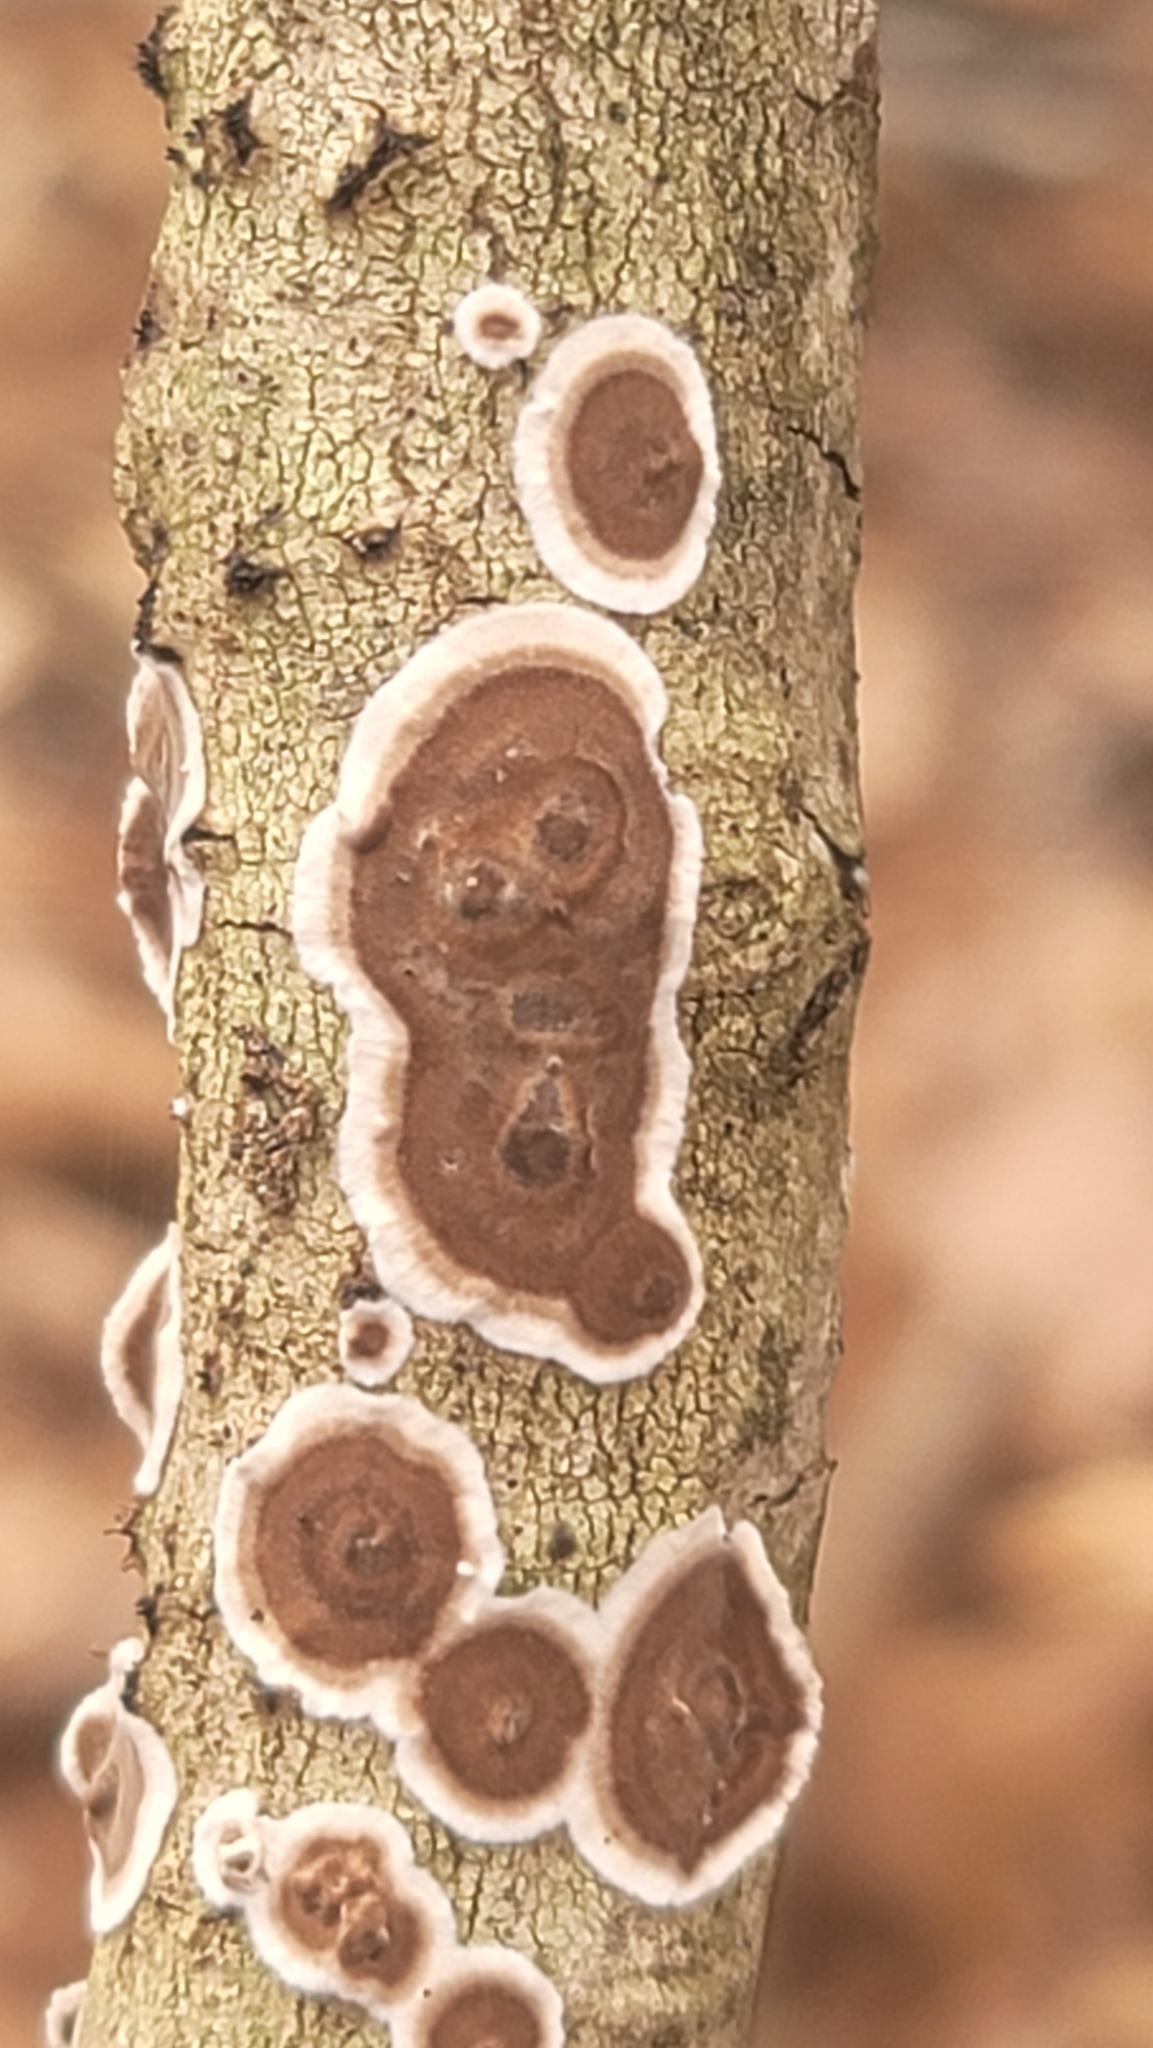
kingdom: Fungi
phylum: Basidiomycota
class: Agaricomycetes
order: Russulales
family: Peniophoraceae
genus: Peniophora
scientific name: Peniophora albobadia
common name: Giraffe spots
